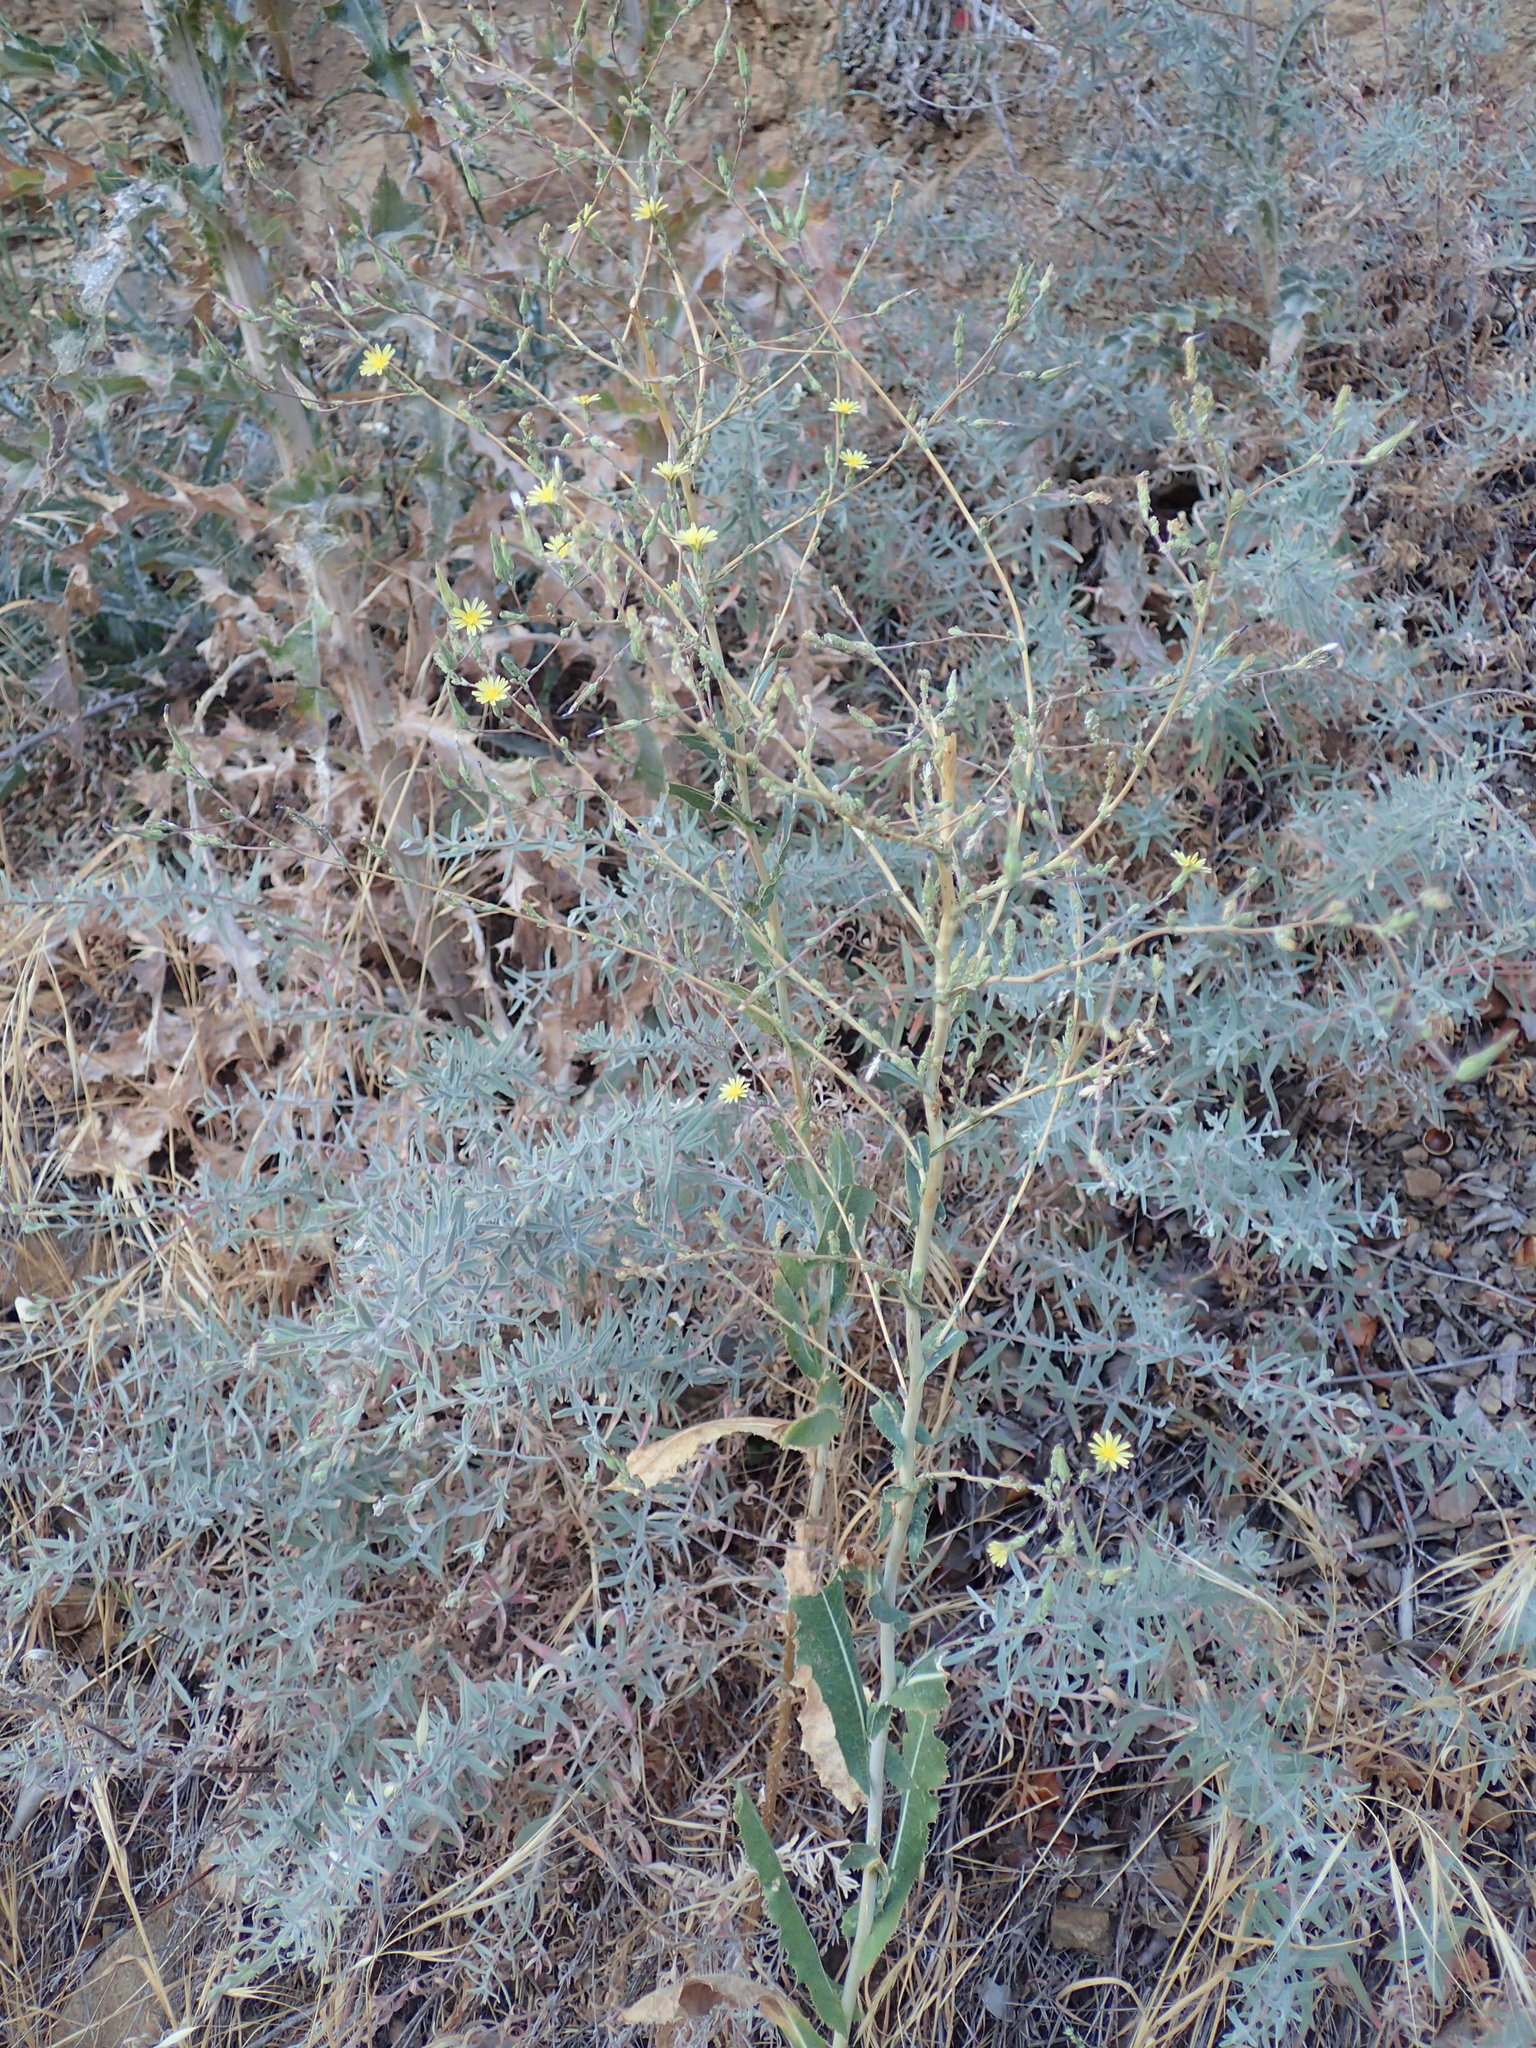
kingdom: Plantae
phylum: Tracheophyta
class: Magnoliopsida
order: Asterales
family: Asteraceae
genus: Lactuca
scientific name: Lactuca serriola
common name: Prickly lettuce
